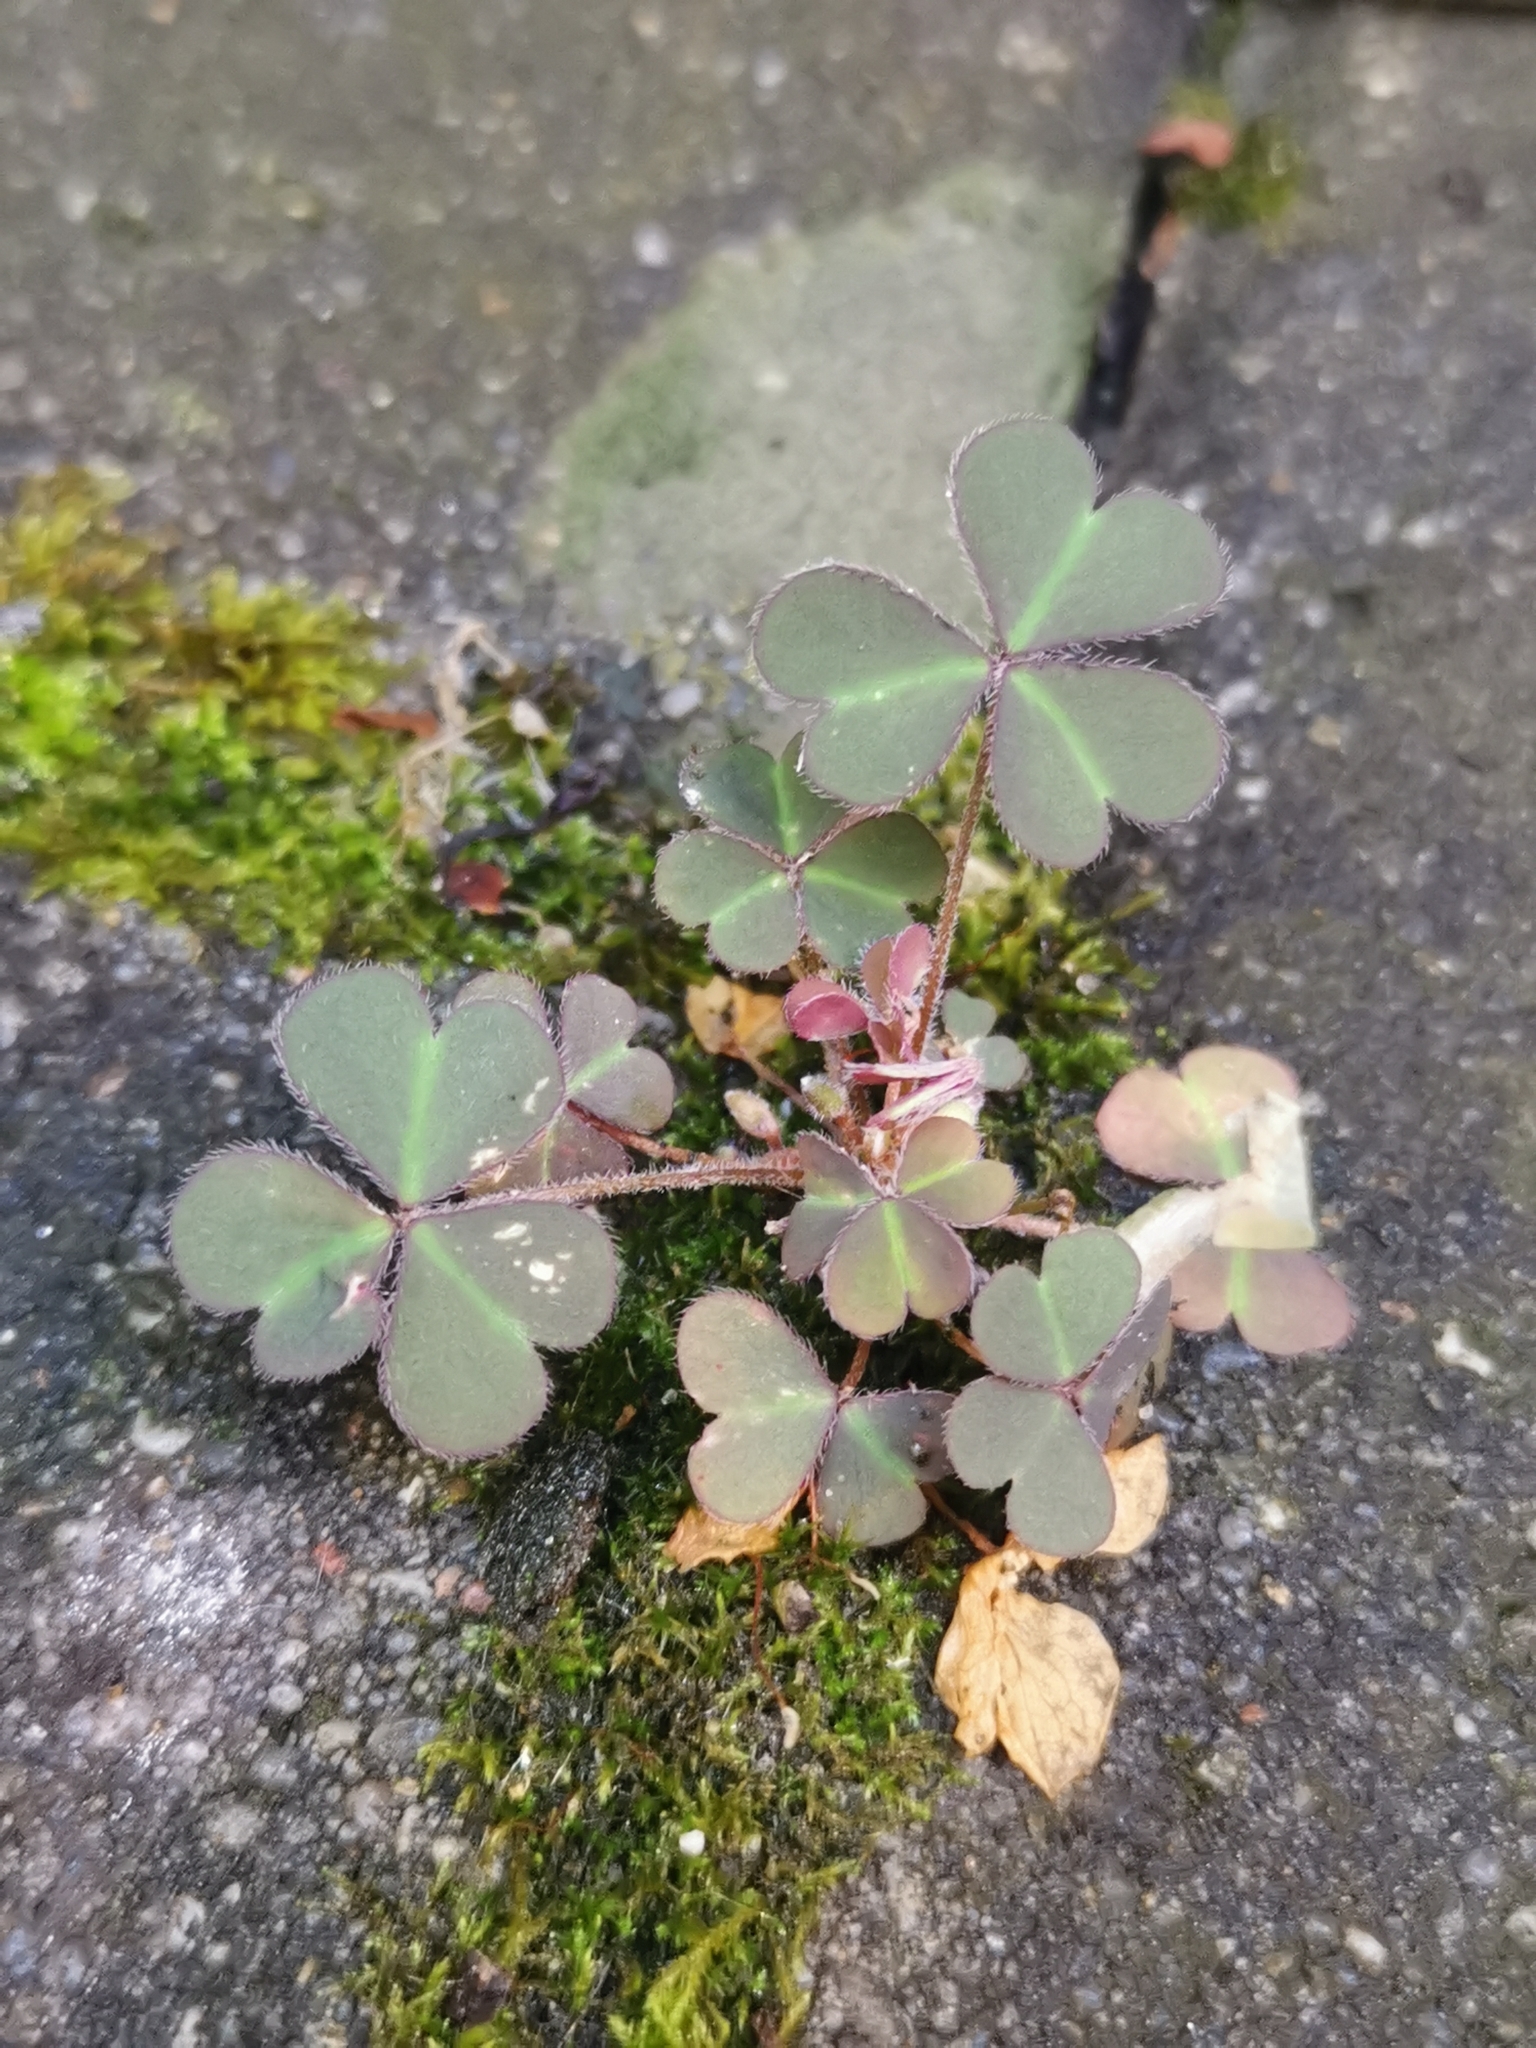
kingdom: Plantae
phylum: Tracheophyta
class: Magnoliopsida
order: Oxalidales
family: Oxalidaceae
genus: Oxalis
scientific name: Oxalis corniculata
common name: Procumbent yellow-sorrel
